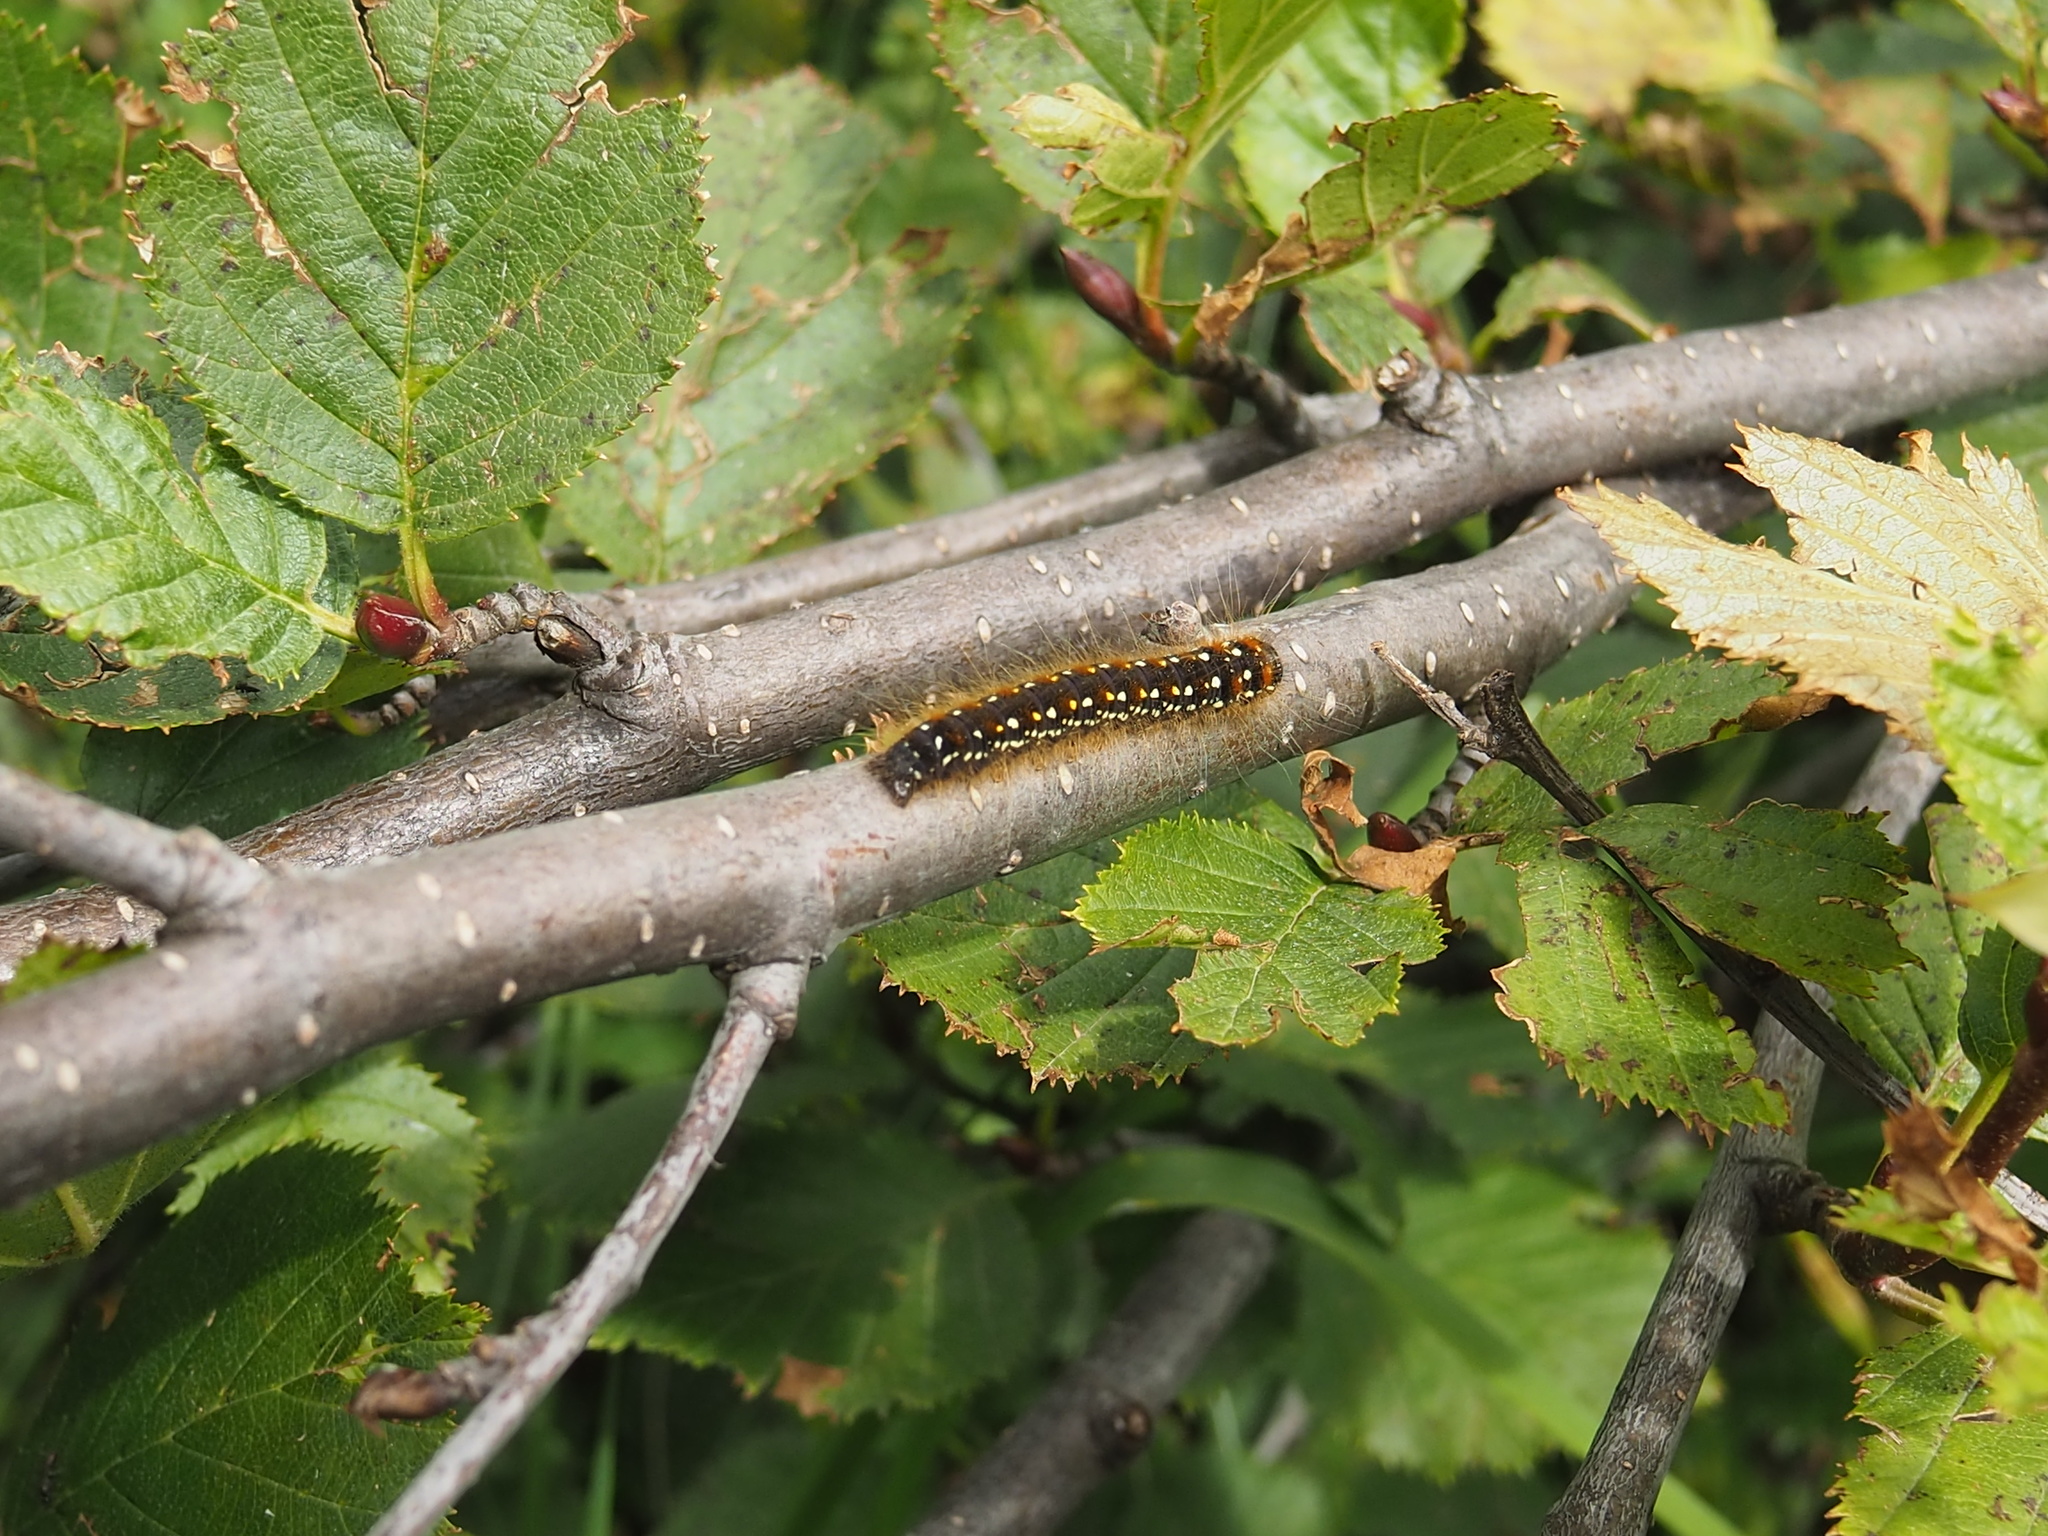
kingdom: Animalia
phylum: Arthropoda
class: Insecta
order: Lepidoptera
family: Lasiocampidae
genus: Eriogaster
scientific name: Eriogaster arbusculae
